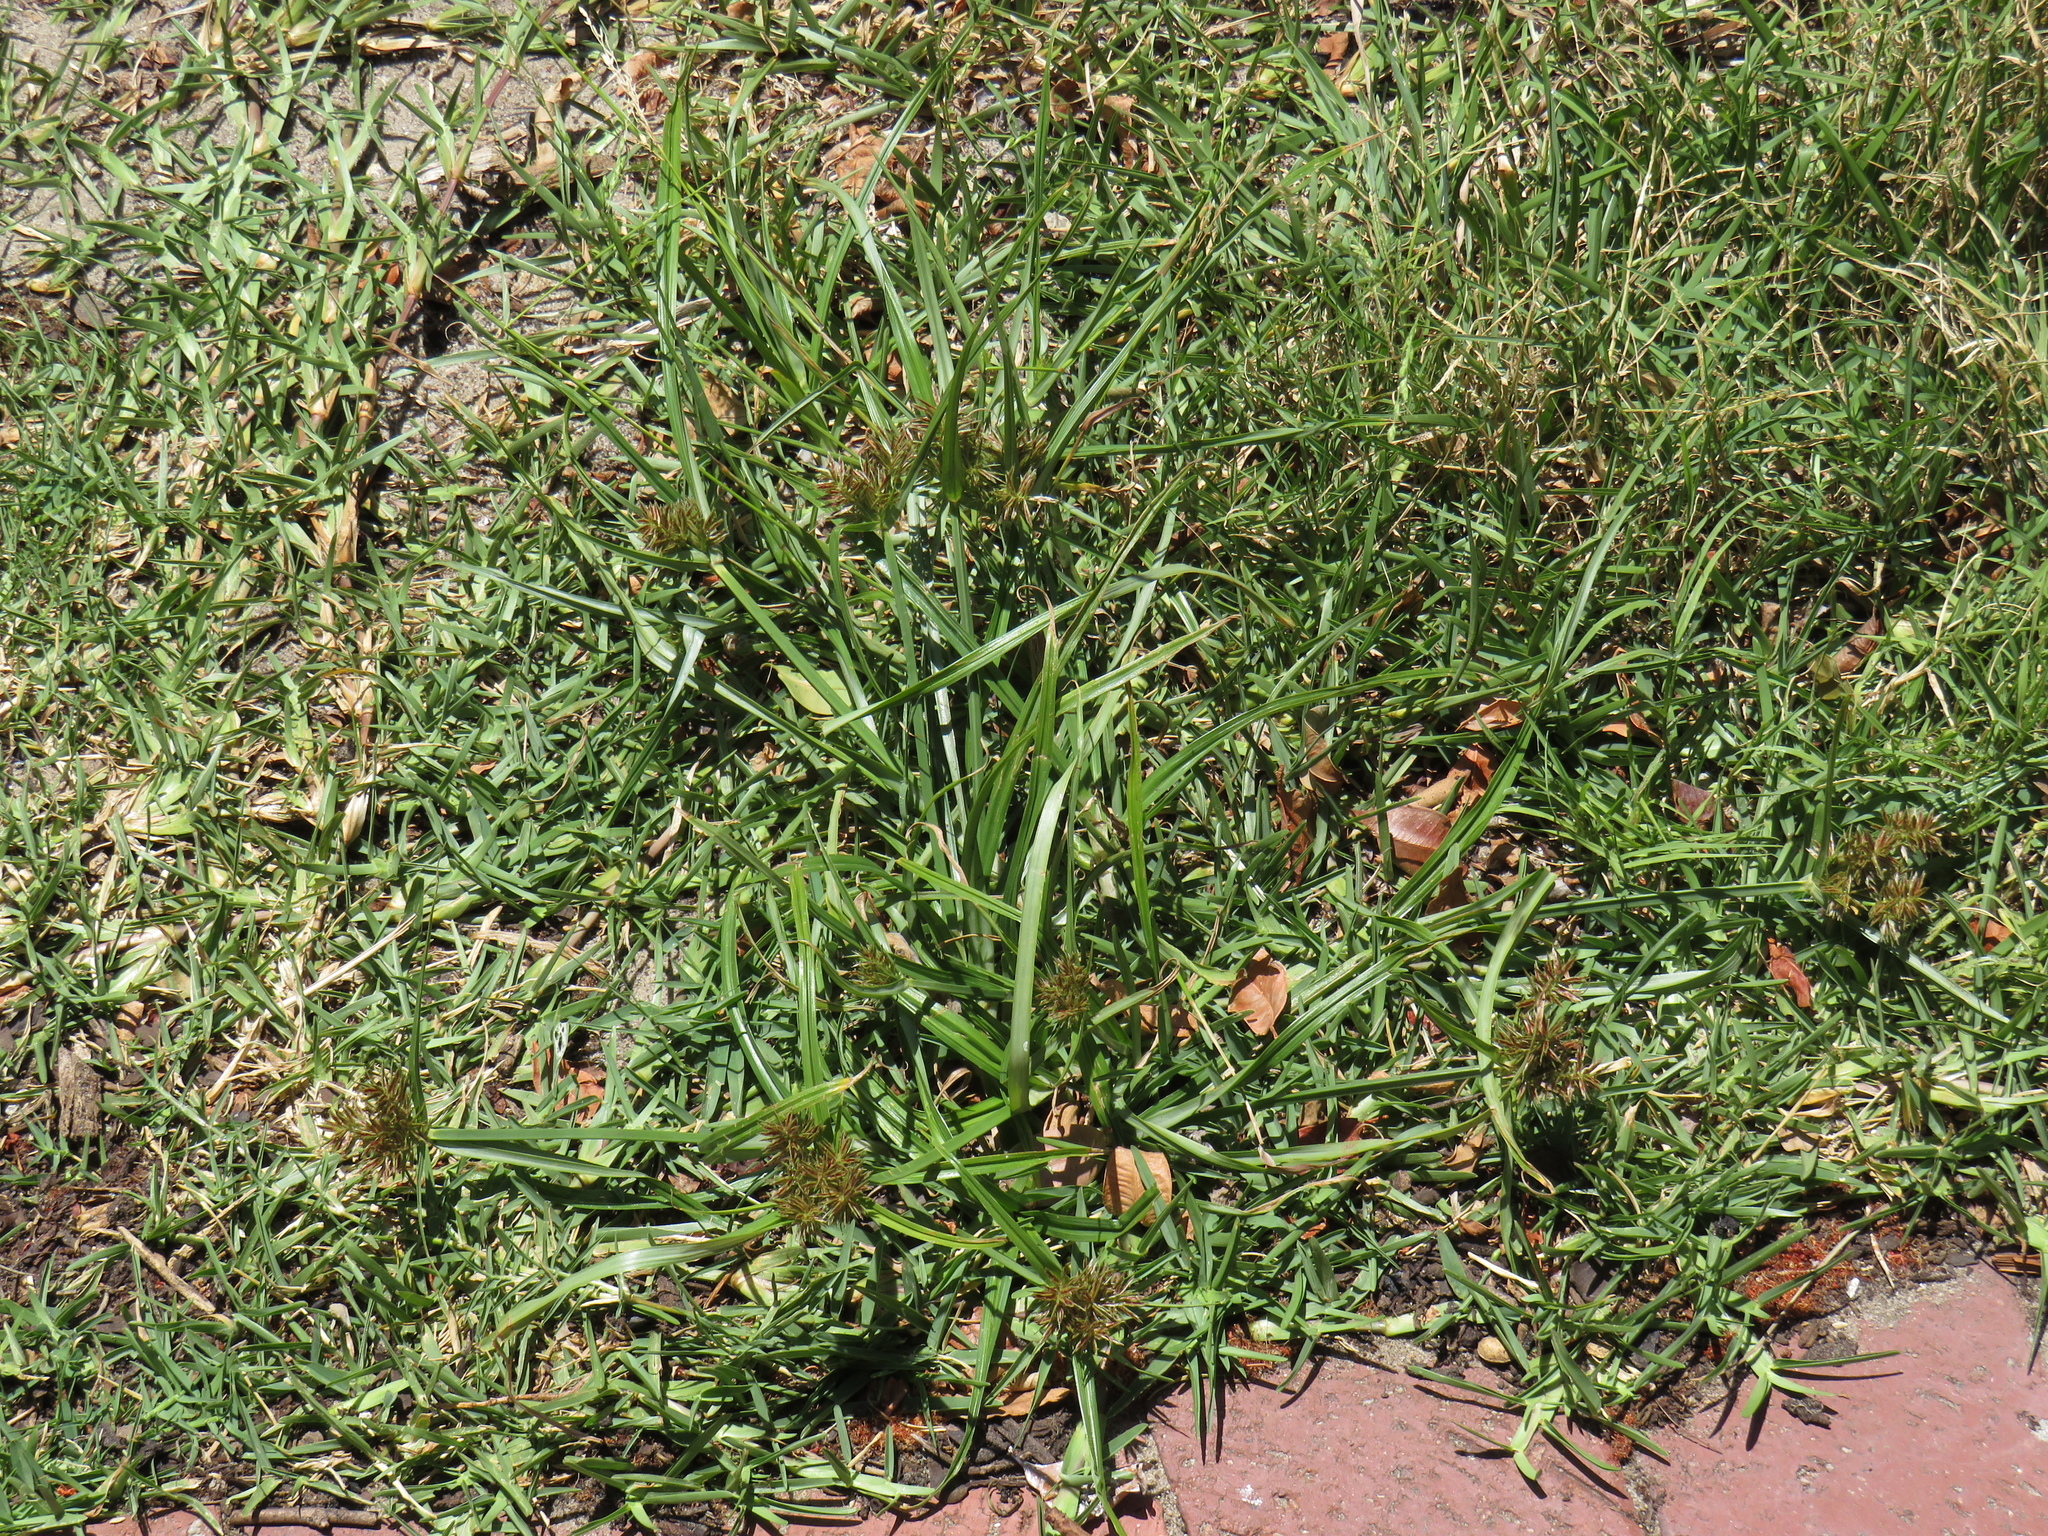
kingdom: Plantae
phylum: Tracheophyta
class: Liliopsida
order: Poales
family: Cyperaceae
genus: Cyperus
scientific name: Cyperus congestus
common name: Dense flat sedge
